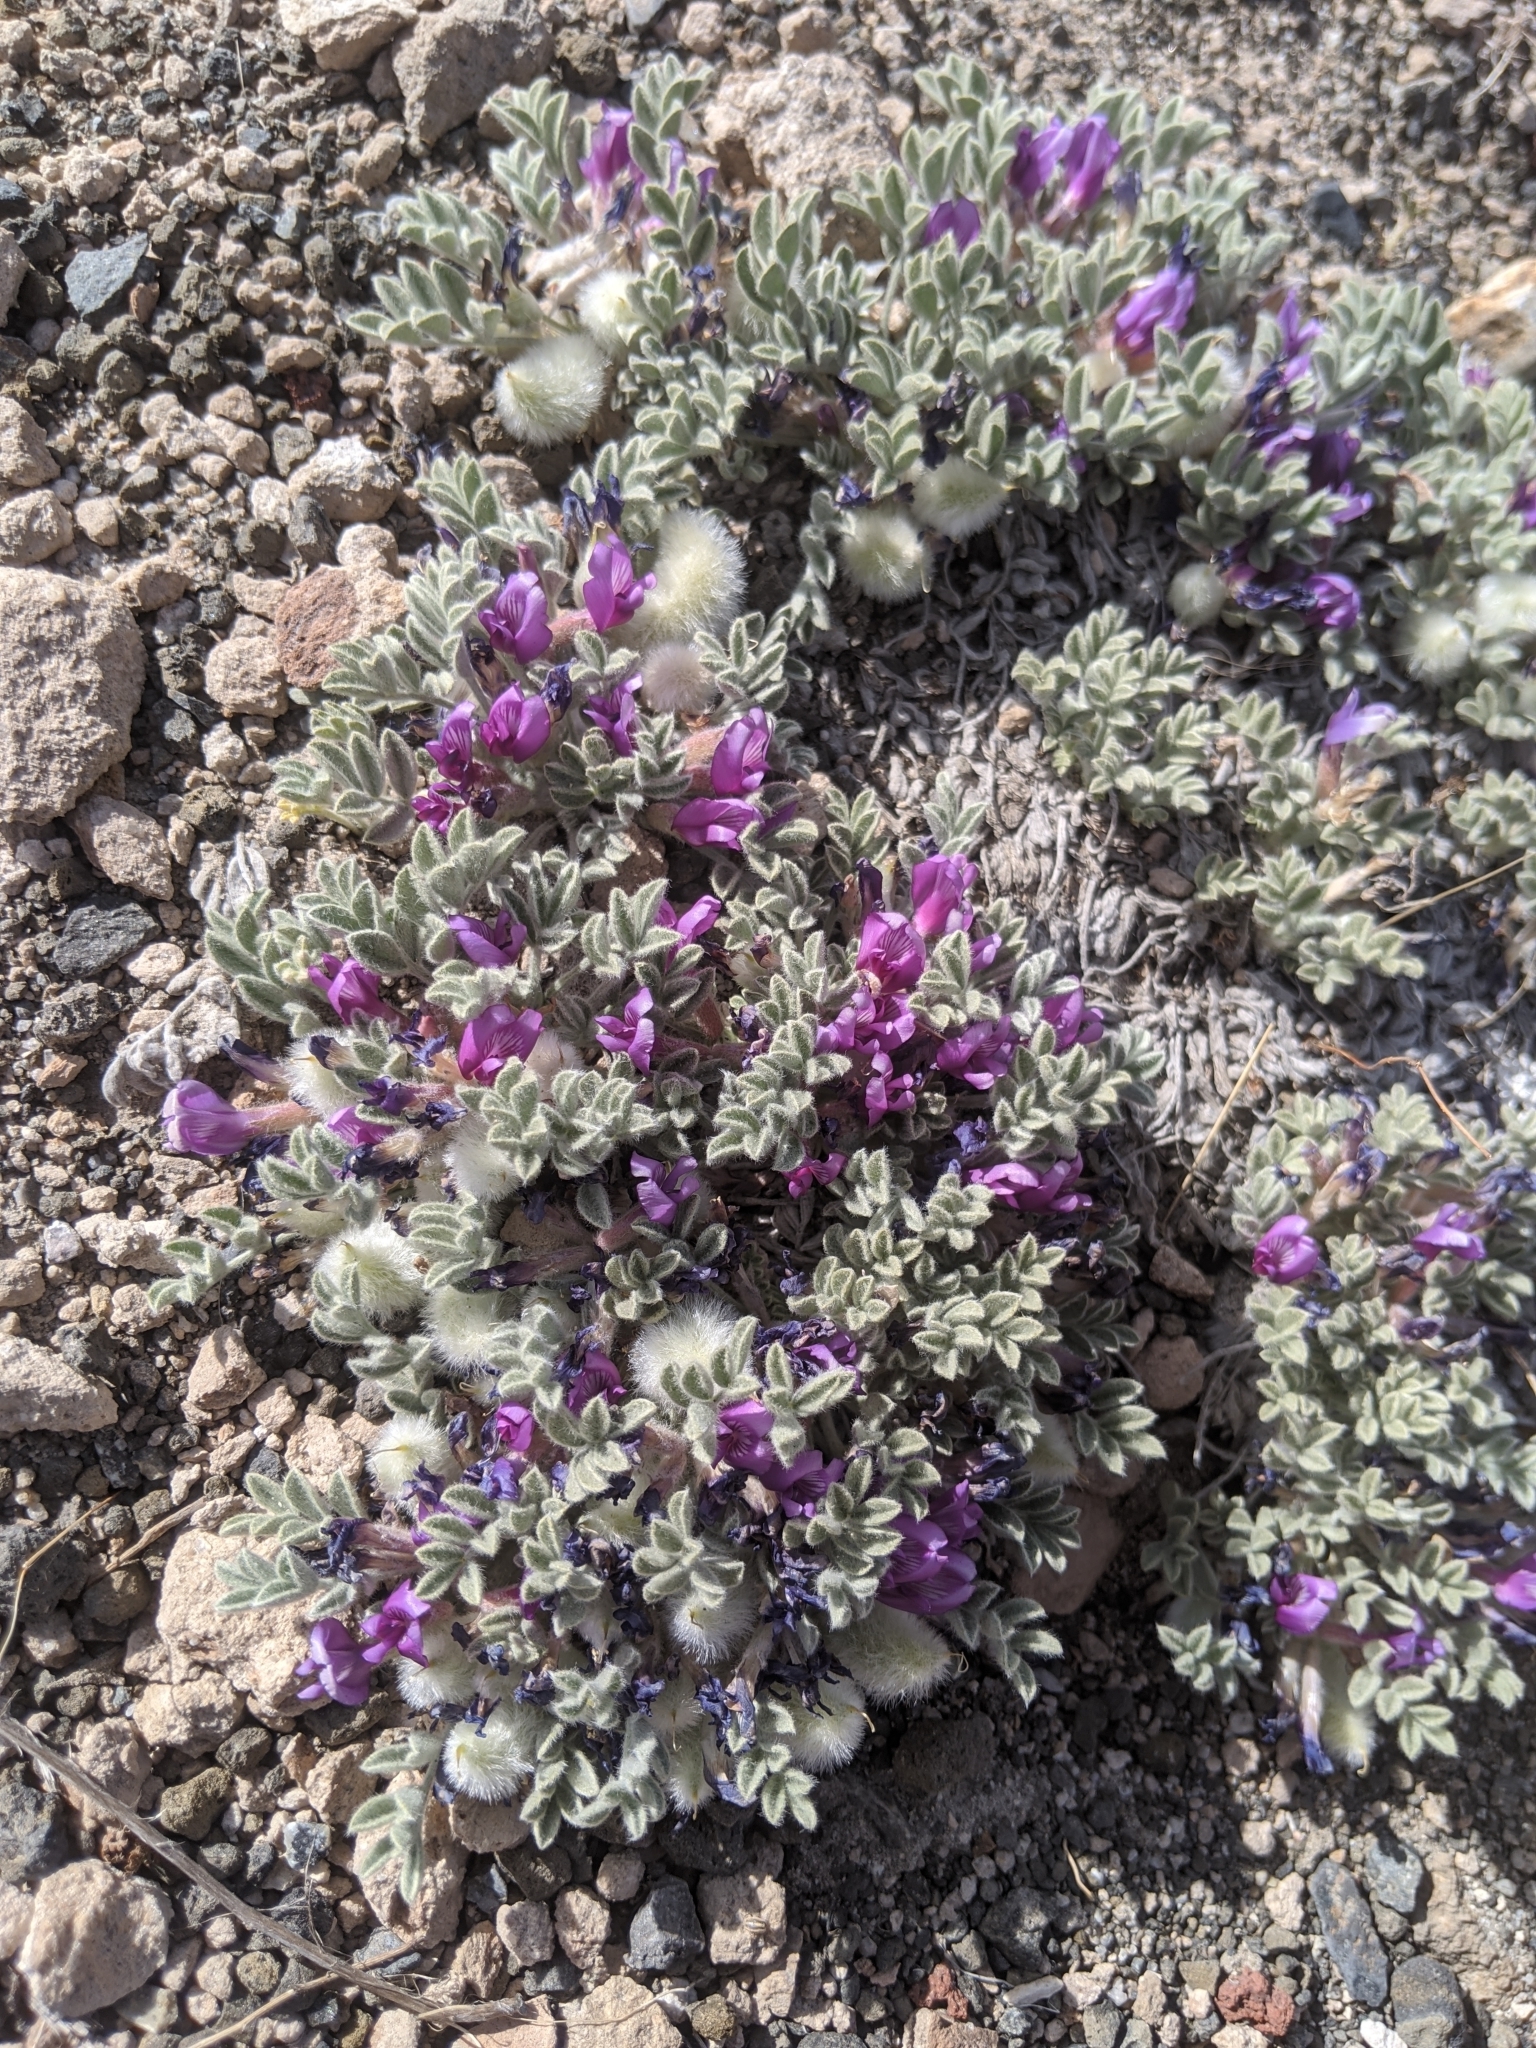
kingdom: Plantae
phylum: Tracheophyta
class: Magnoliopsida
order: Fabales
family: Fabaceae
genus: Astragalus
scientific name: Astragalus purshii
